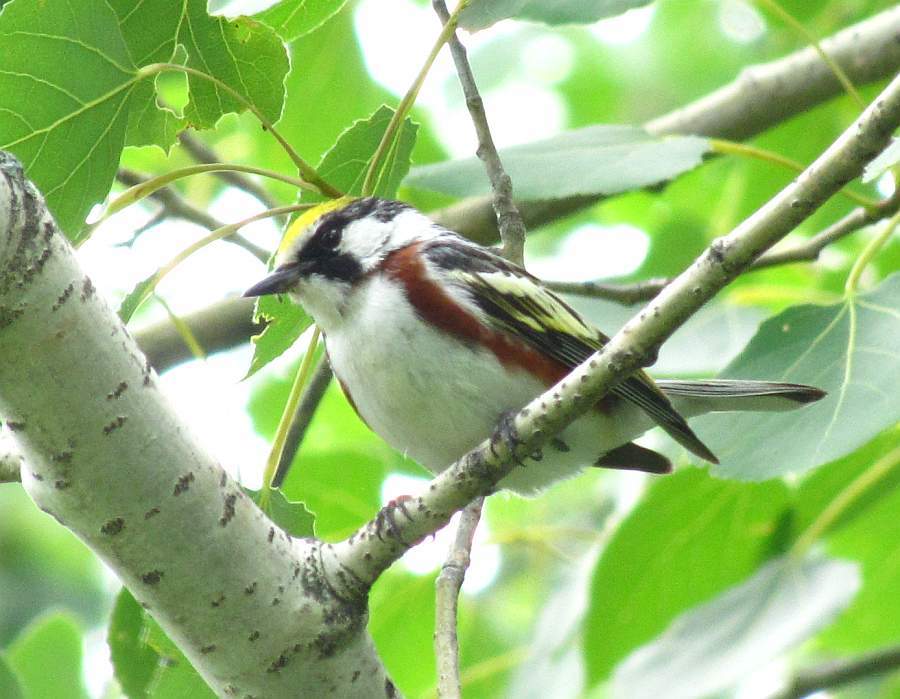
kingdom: Animalia
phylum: Chordata
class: Aves
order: Passeriformes
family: Parulidae
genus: Setophaga
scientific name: Setophaga pensylvanica
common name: Chestnut-sided warbler
